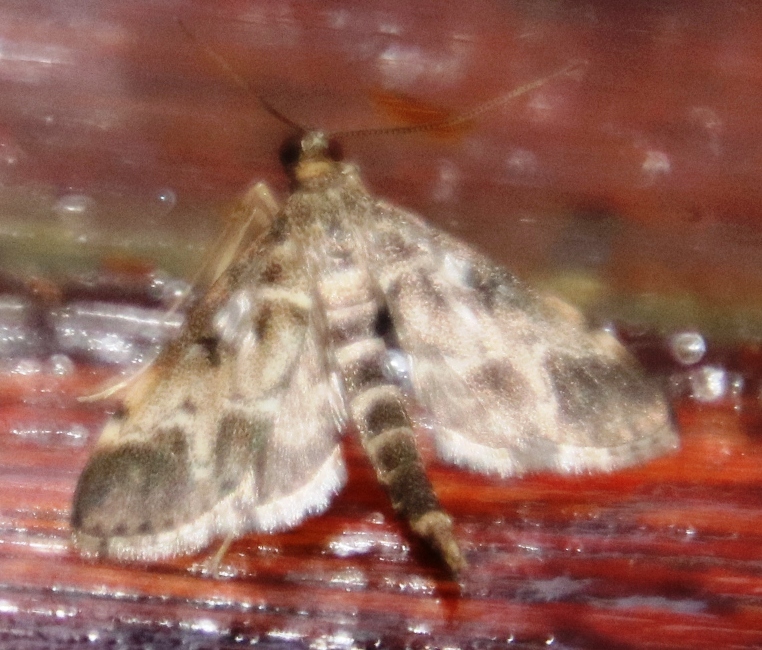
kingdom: Animalia
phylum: Arthropoda
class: Insecta
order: Lepidoptera
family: Crambidae
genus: Duponchelia
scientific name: Duponchelia fovealis
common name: Crambid moth
